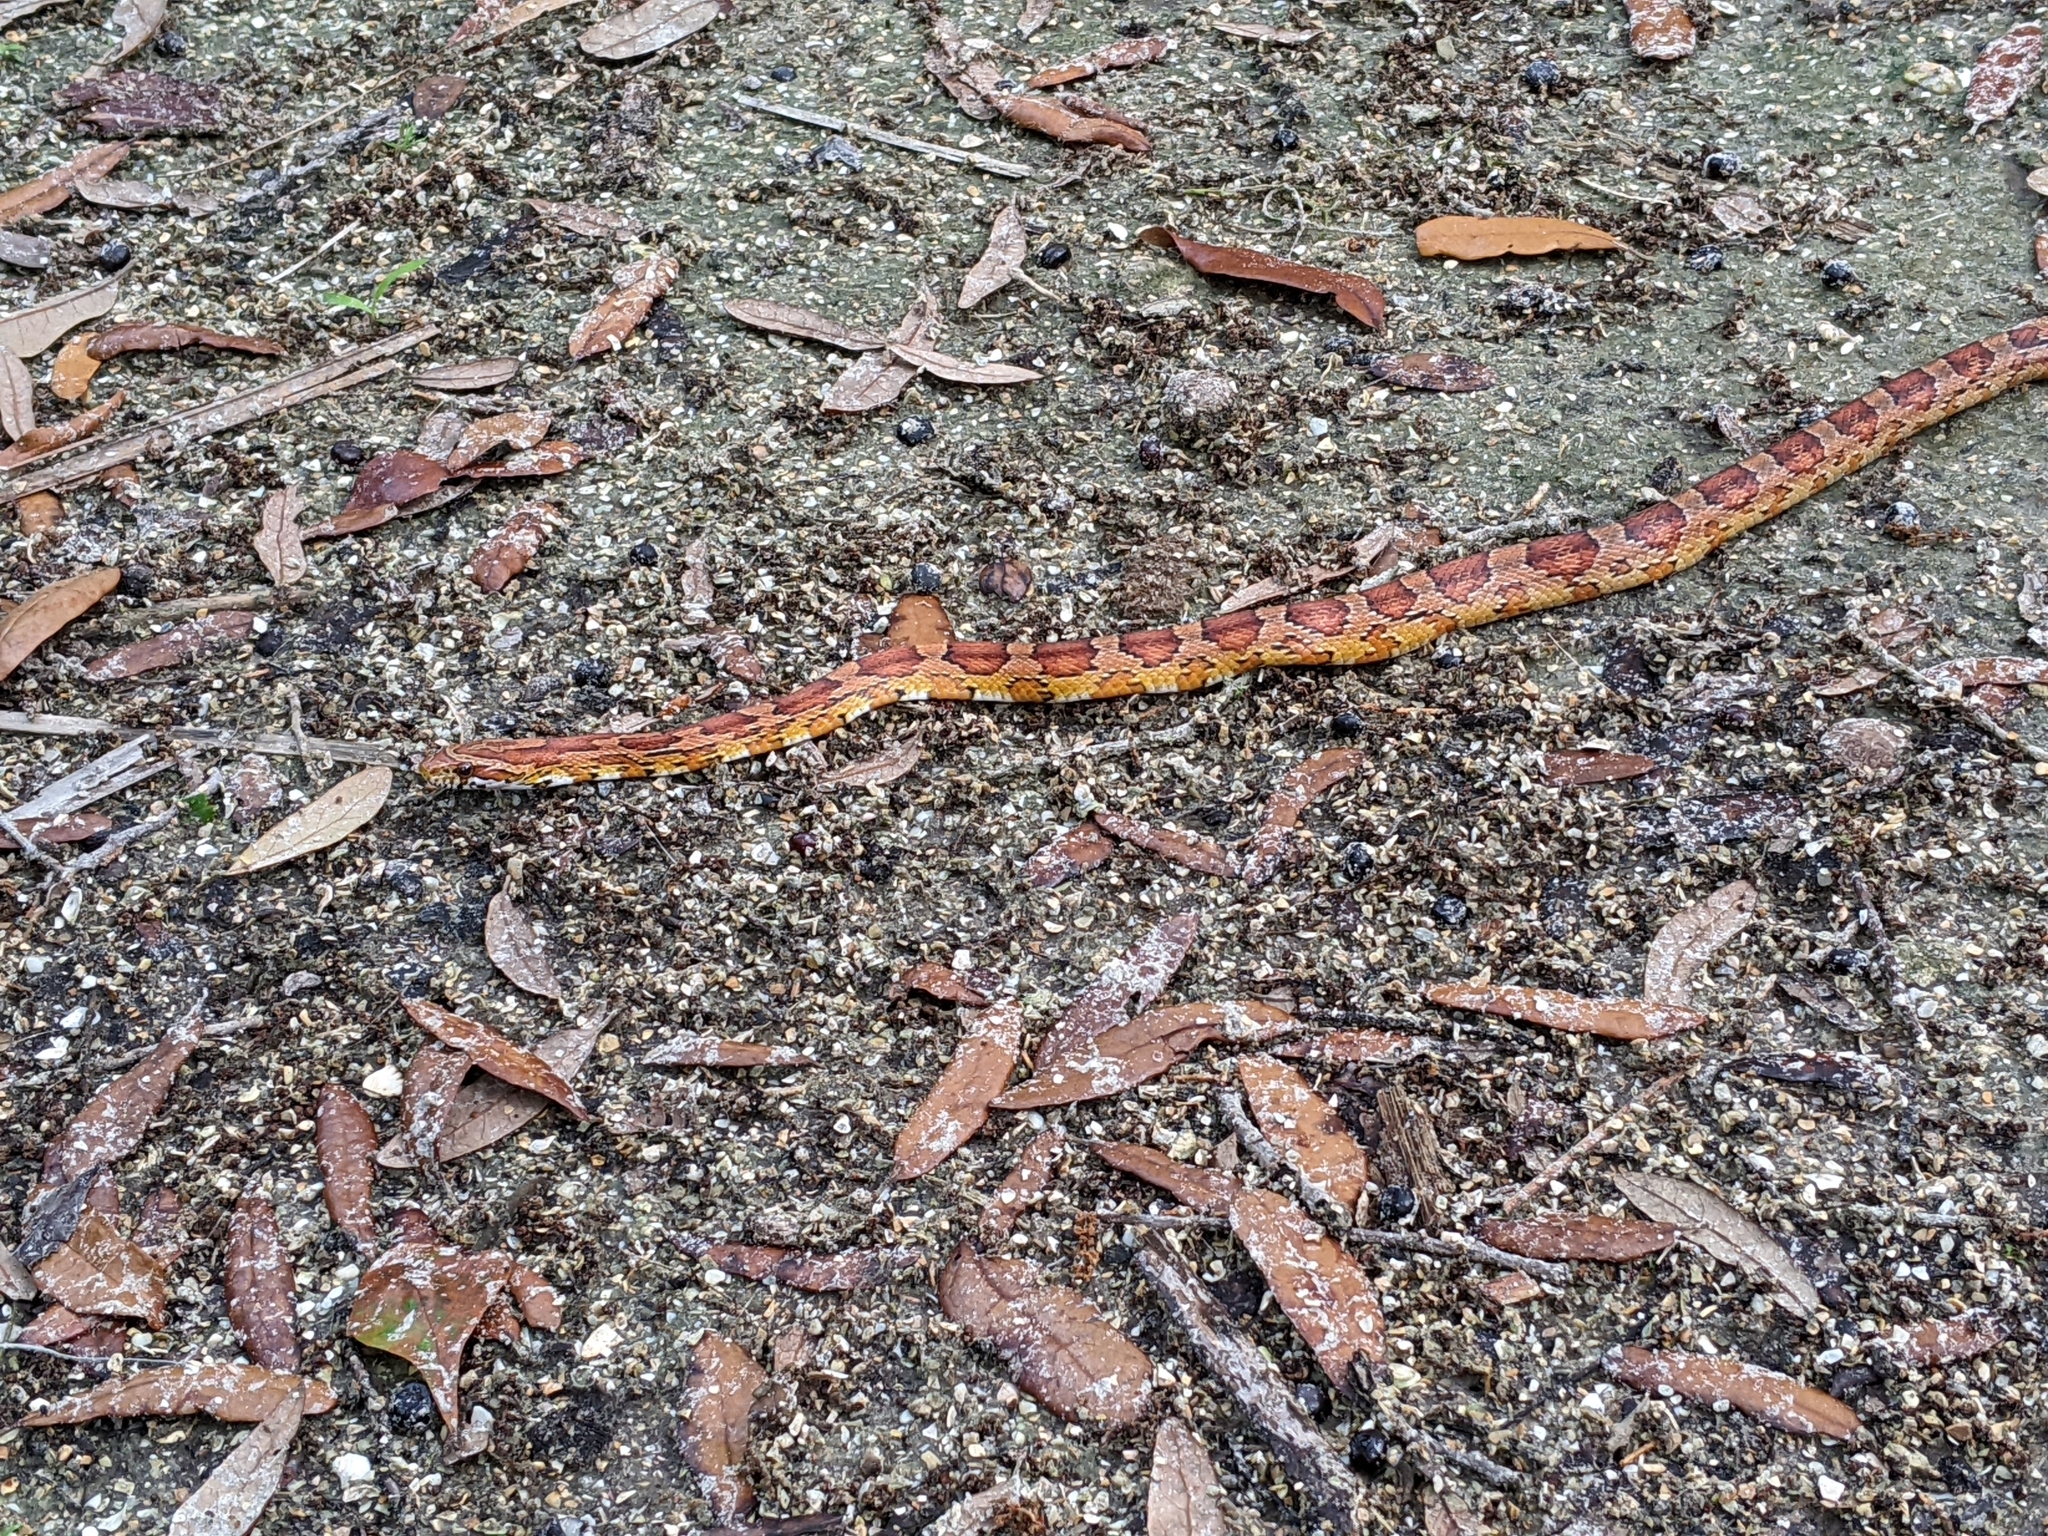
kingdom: Animalia
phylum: Chordata
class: Squamata
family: Colubridae
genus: Pantherophis
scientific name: Pantherophis guttatus
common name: Red cornsnake
